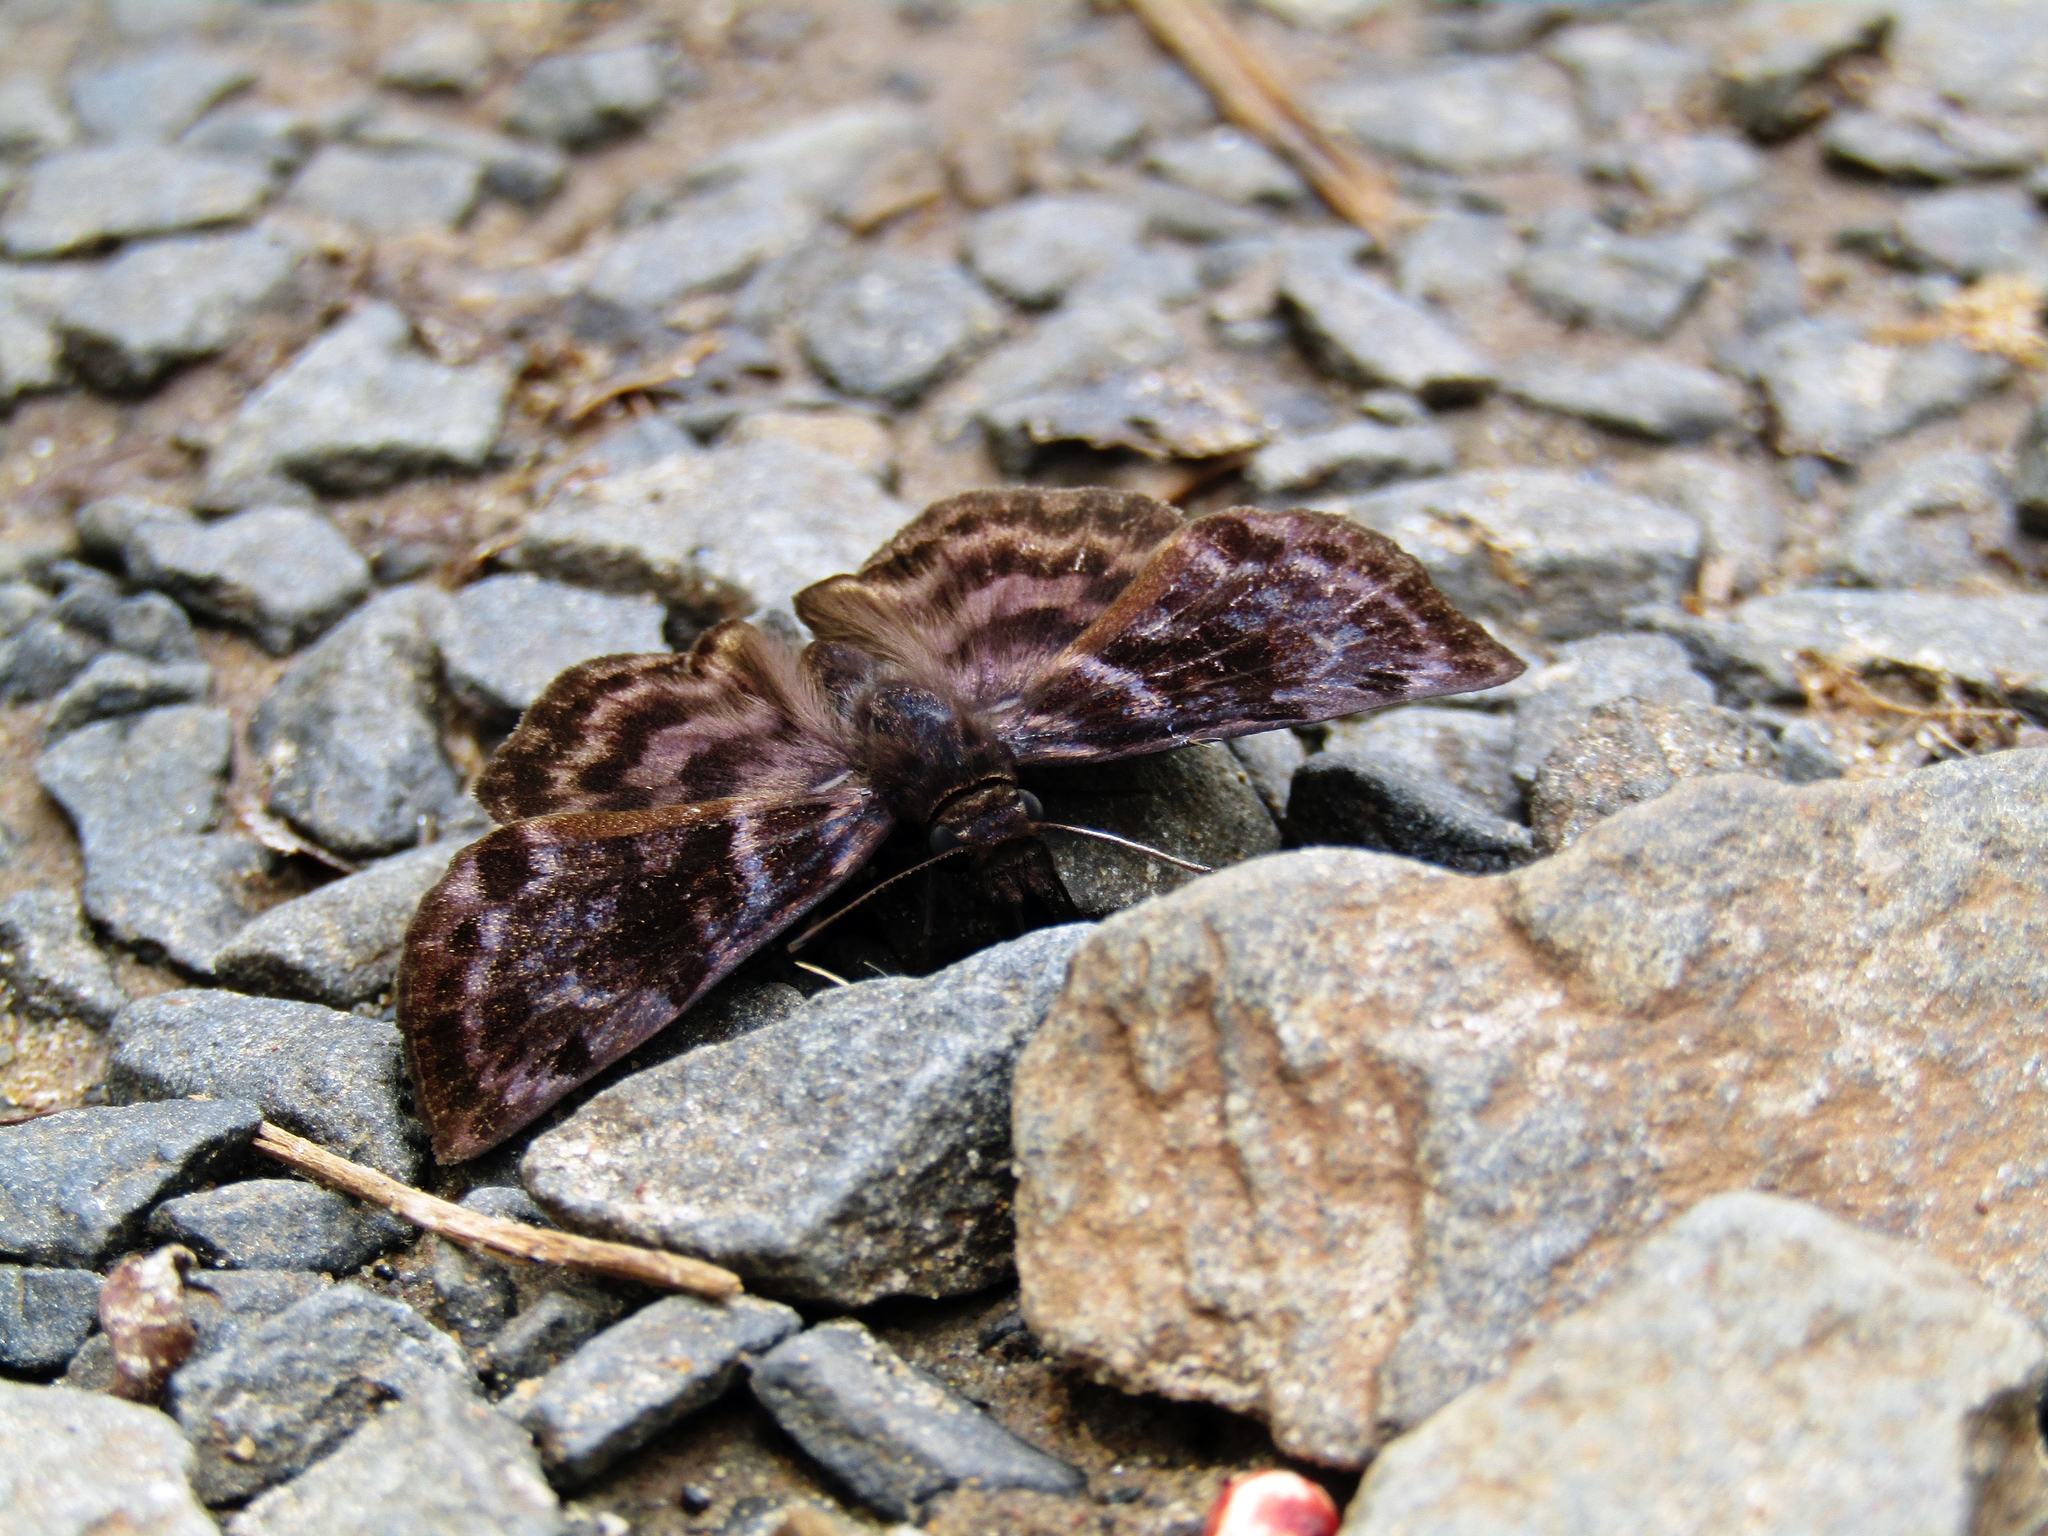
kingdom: Animalia
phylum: Arthropoda
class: Insecta
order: Lepidoptera
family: Hesperiidae
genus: Ebrietas
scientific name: Ebrietas anacreon
